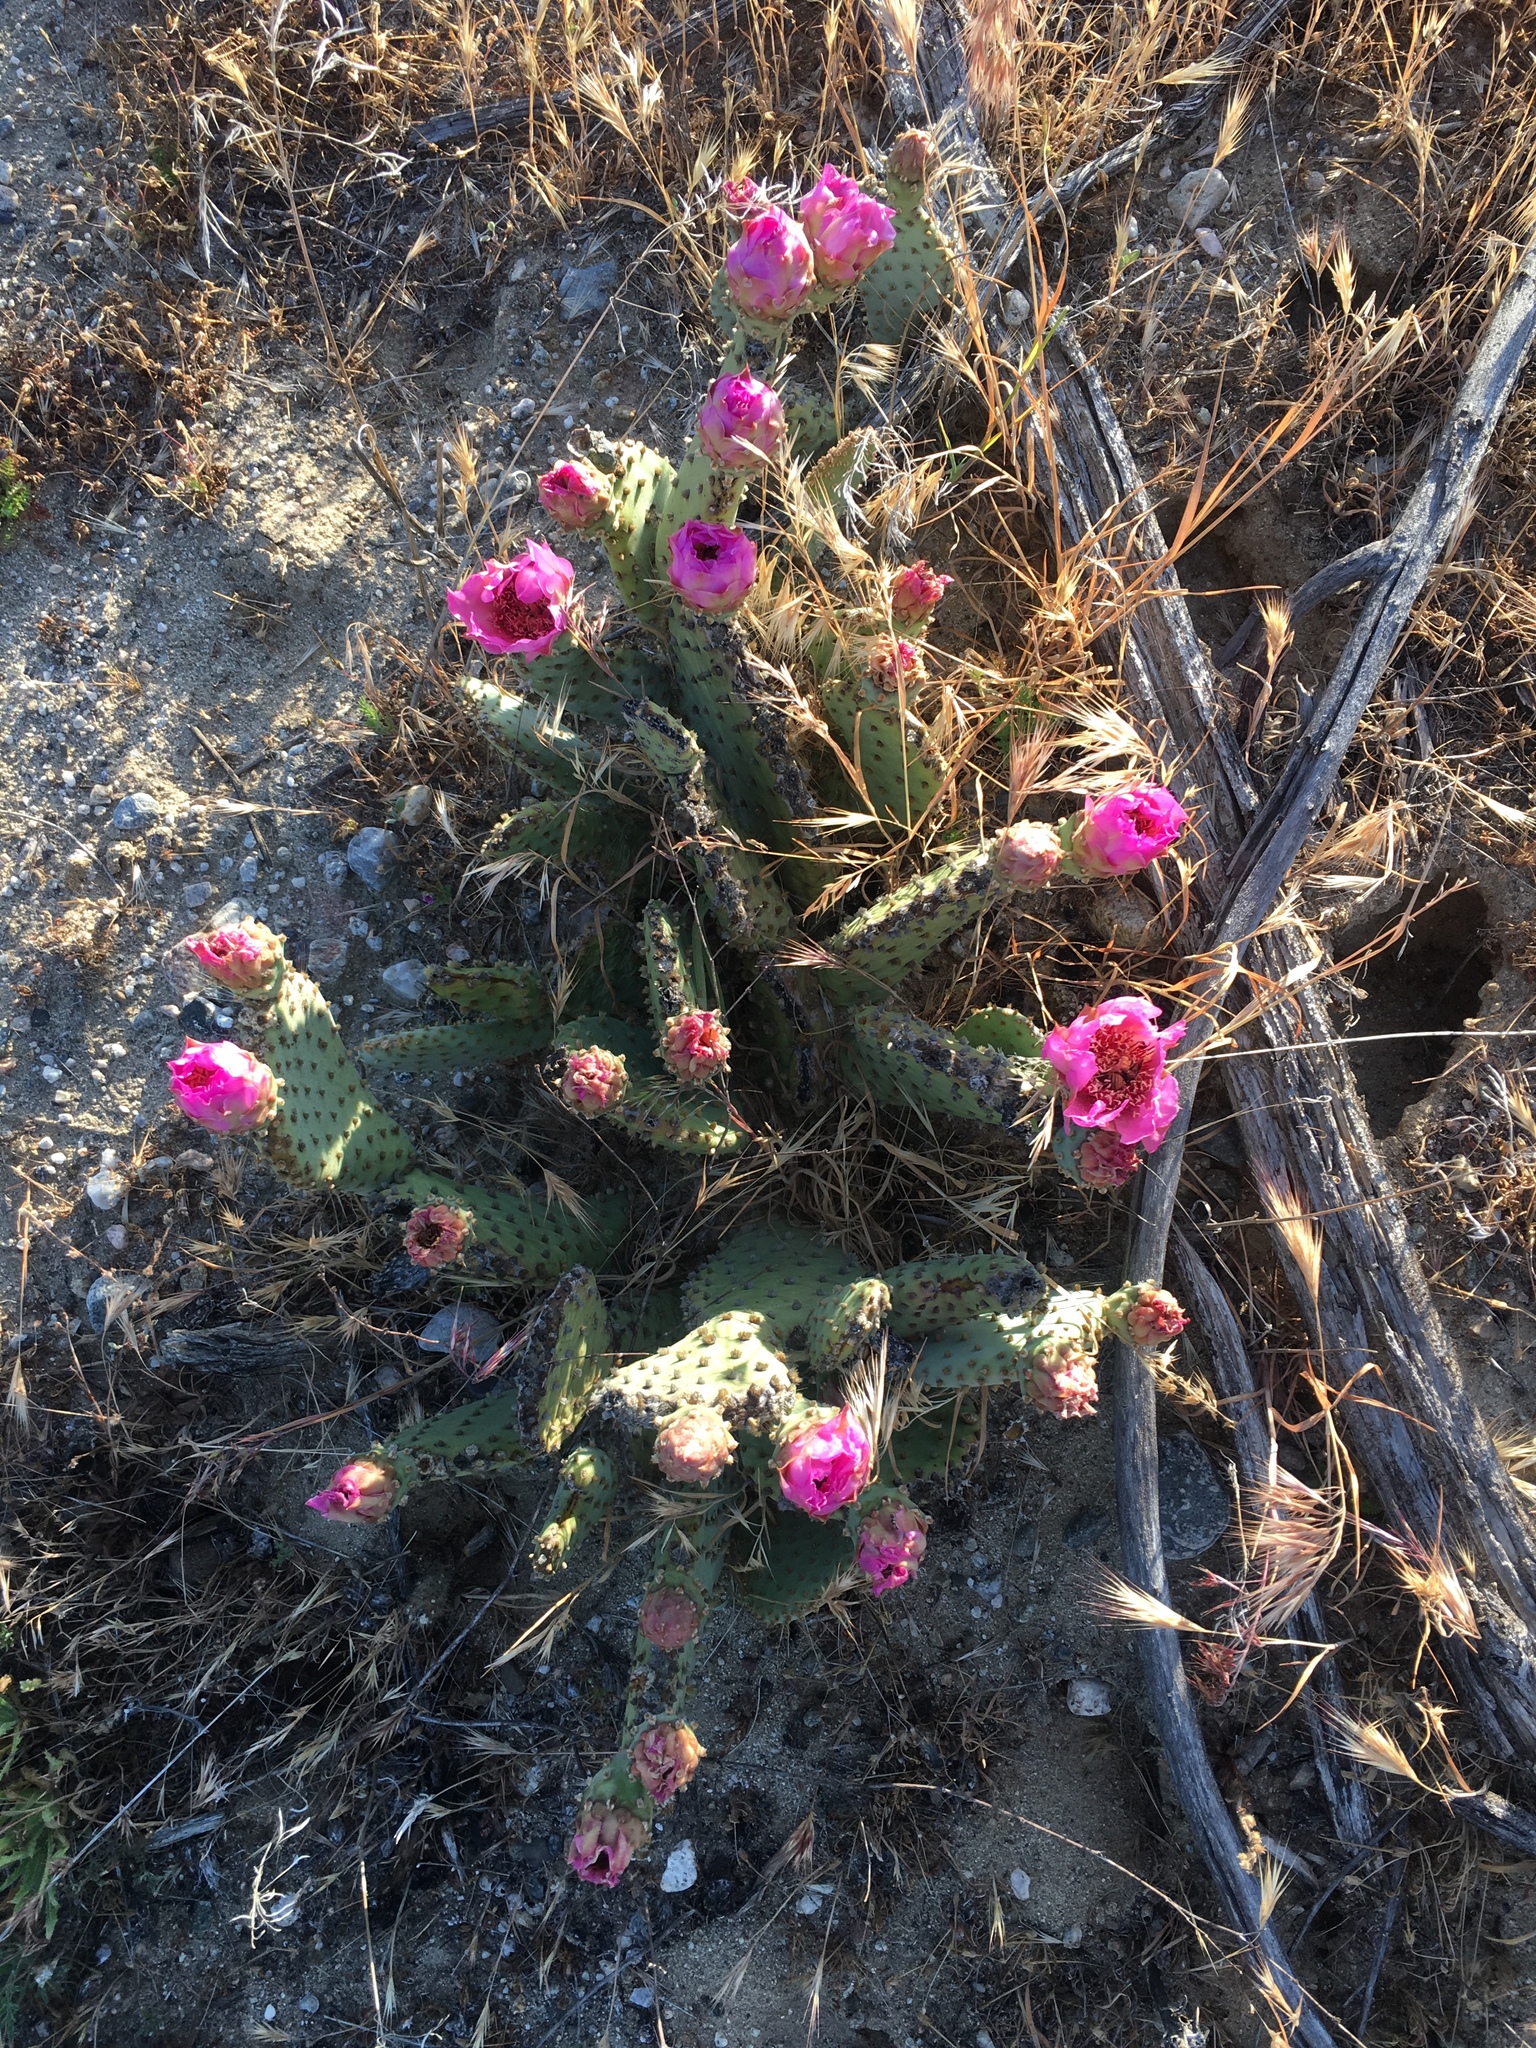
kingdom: Plantae
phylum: Tracheophyta
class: Magnoliopsida
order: Caryophyllales
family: Cactaceae
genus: Opuntia
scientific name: Opuntia basilaris
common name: Beavertail prickly-pear
